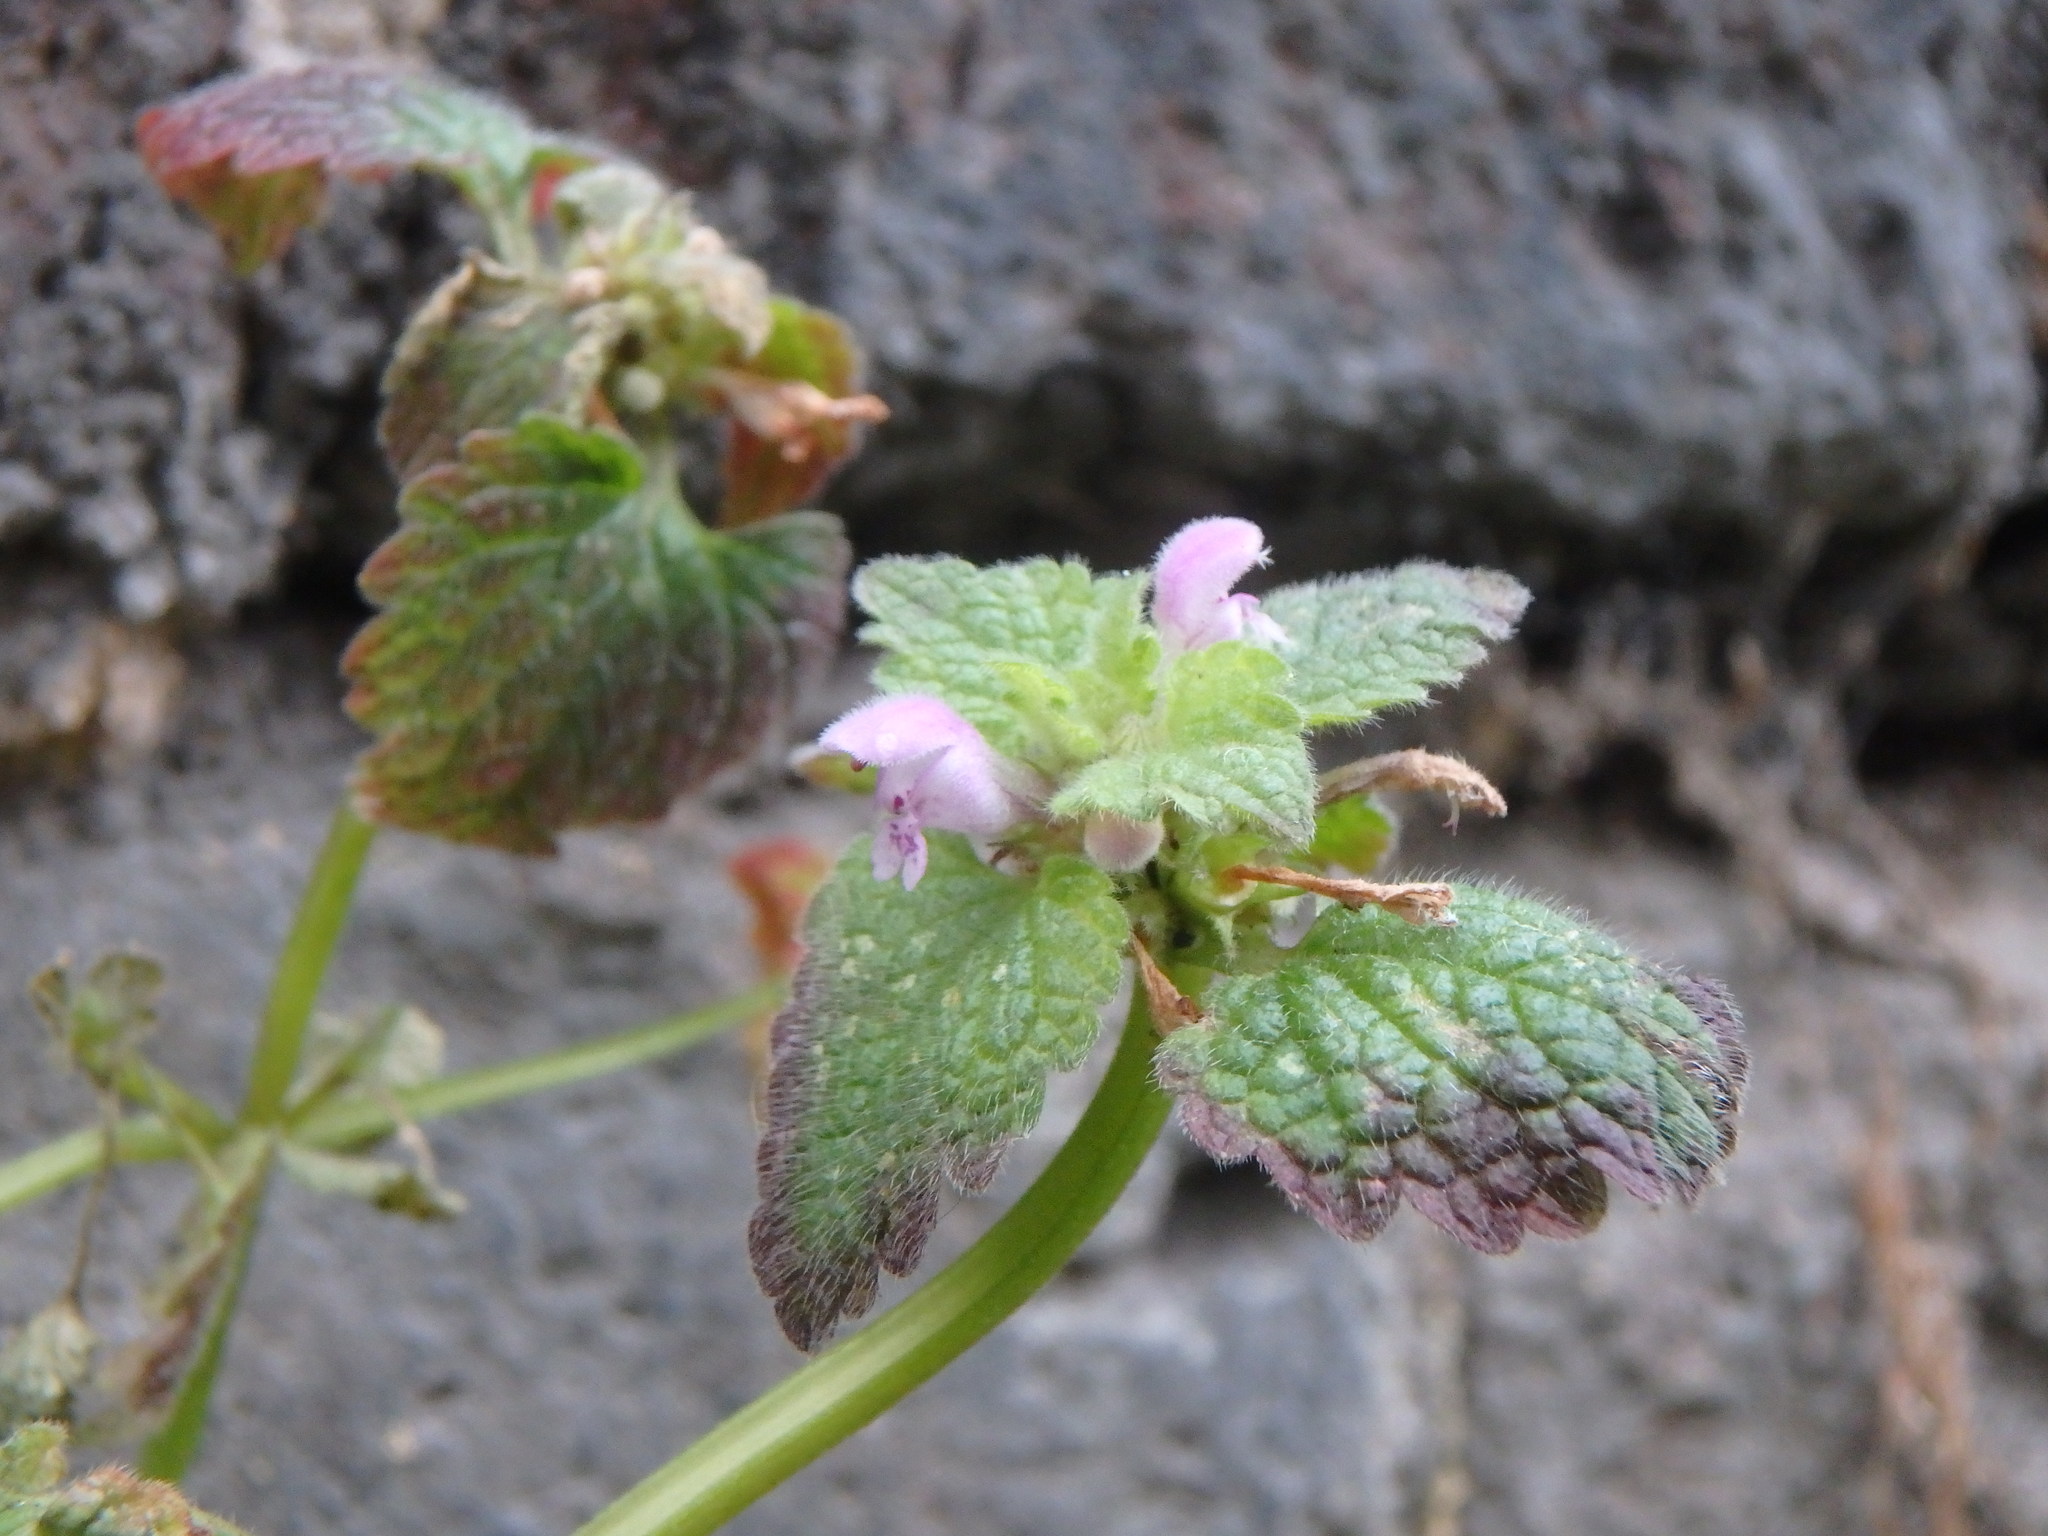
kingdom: Plantae
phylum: Tracheophyta
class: Magnoliopsida
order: Lamiales
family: Lamiaceae
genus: Lamium
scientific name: Lamium purpureum
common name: Red dead-nettle
